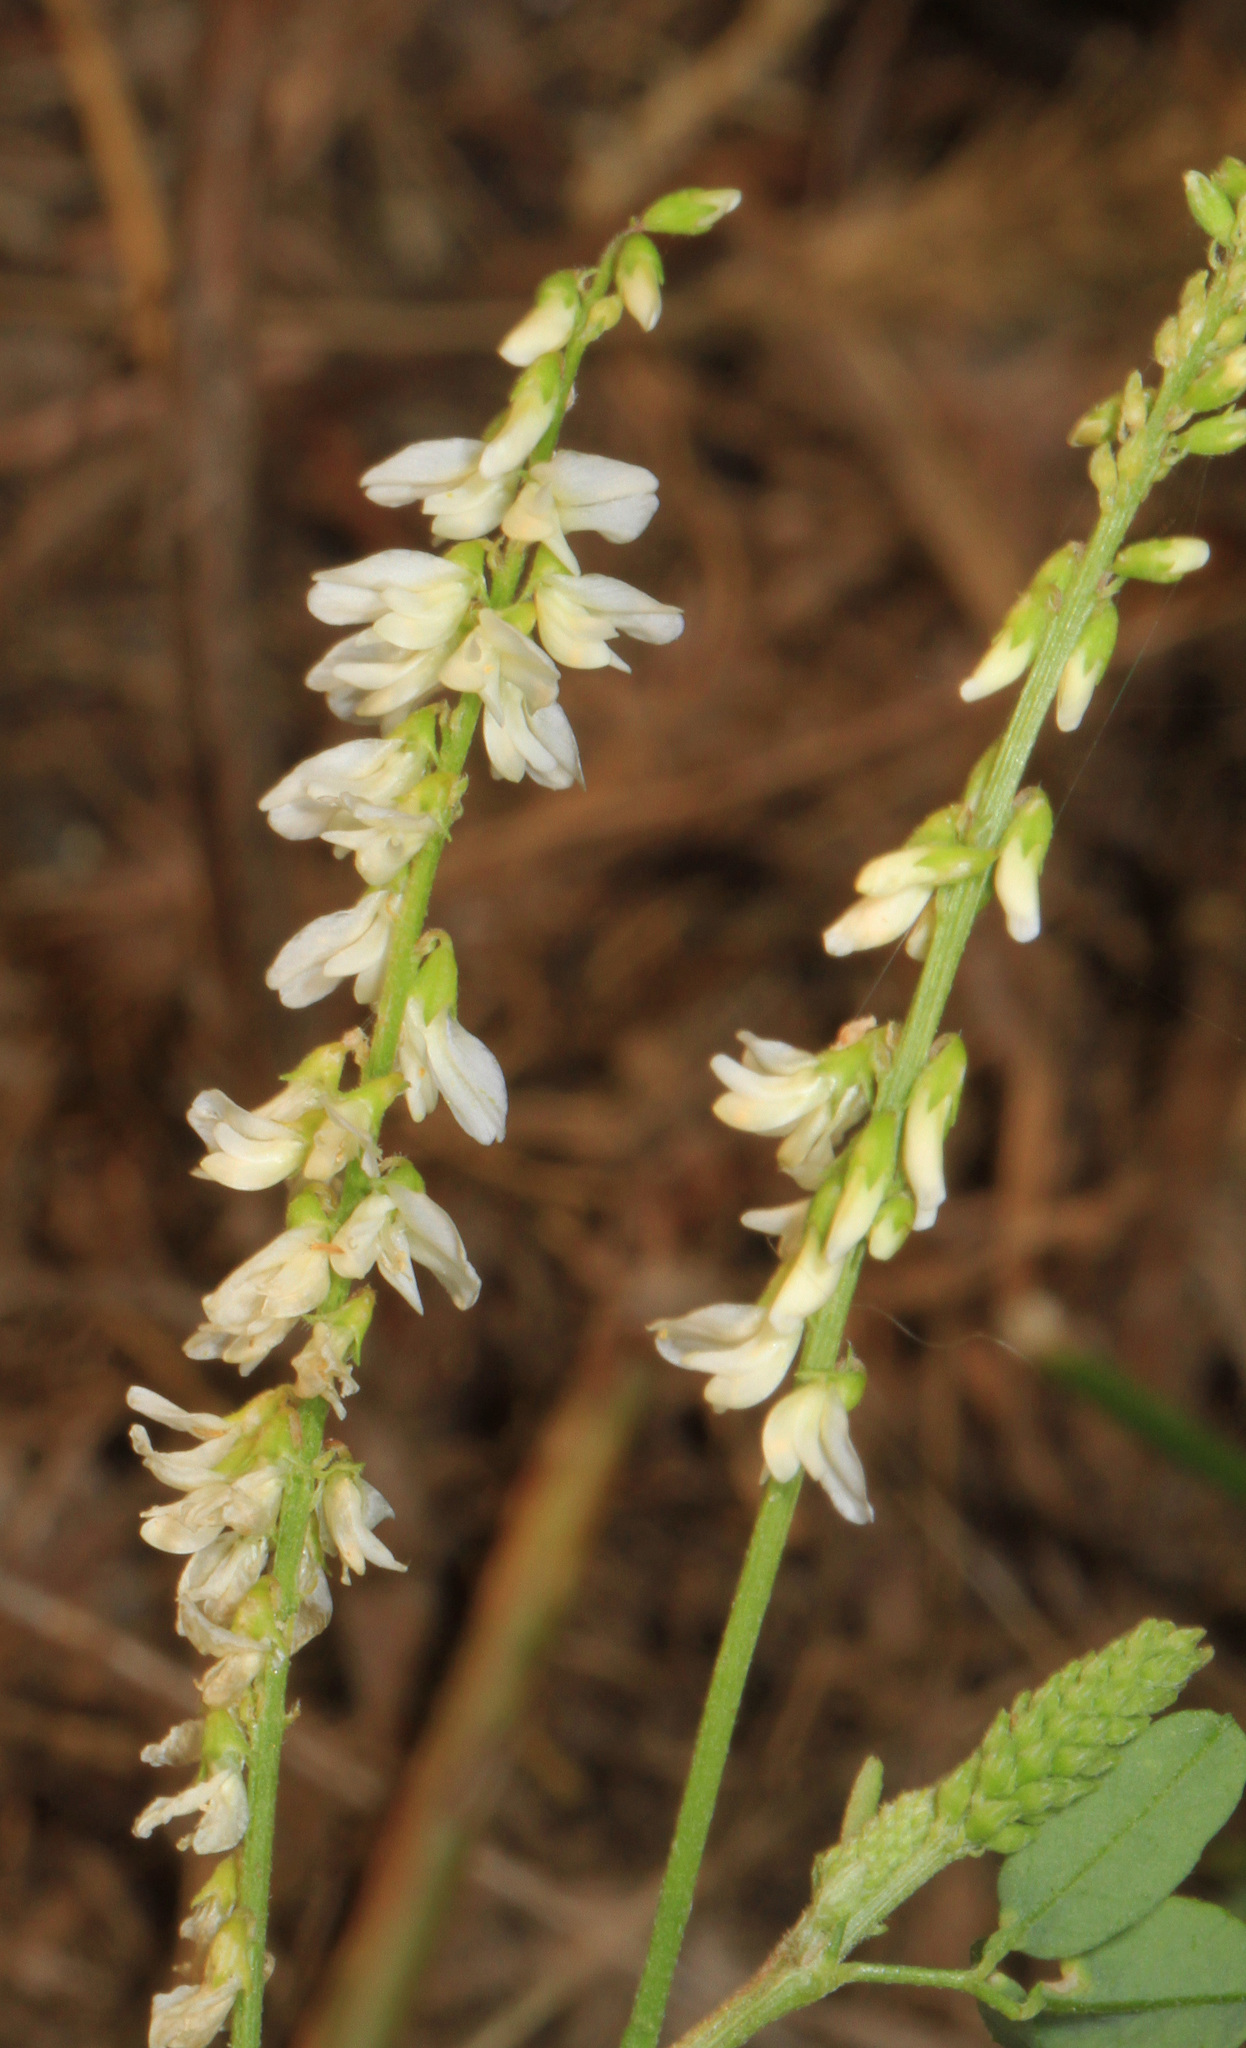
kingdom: Plantae
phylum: Tracheophyta
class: Magnoliopsida
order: Fabales
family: Fabaceae
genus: Melilotus
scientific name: Melilotus albus
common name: White melilot
